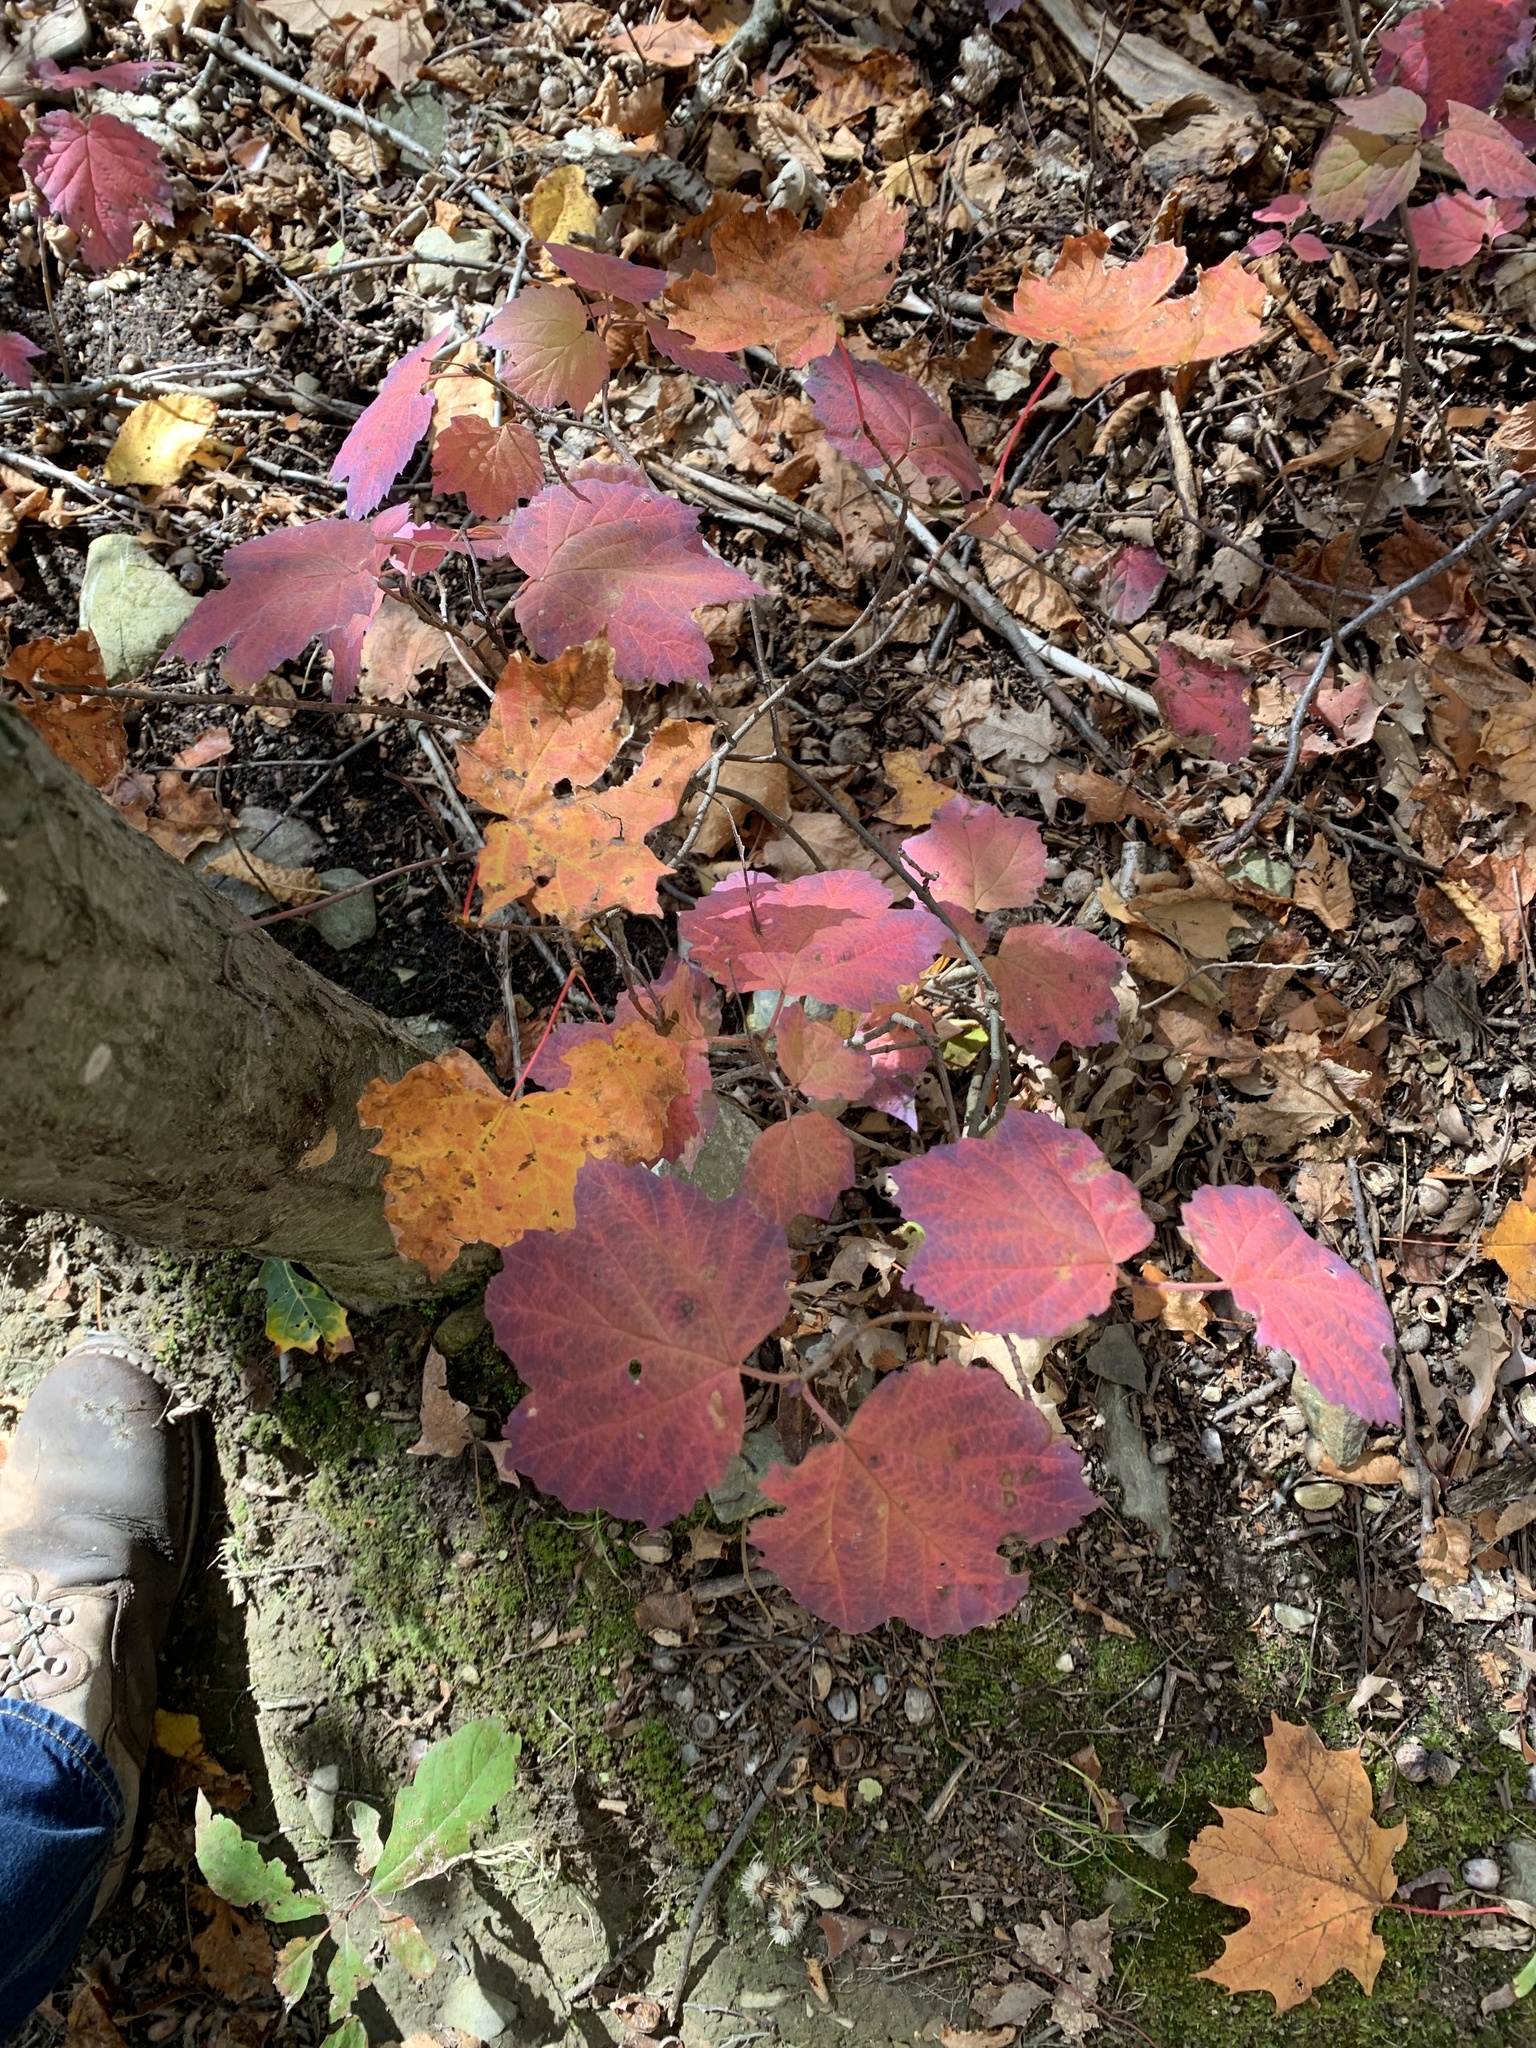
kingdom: Plantae
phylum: Tracheophyta
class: Magnoliopsida
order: Dipsacales
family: Viburnaceae
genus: Viburnum
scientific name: Viburnum acerifolium
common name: Dockmackie
